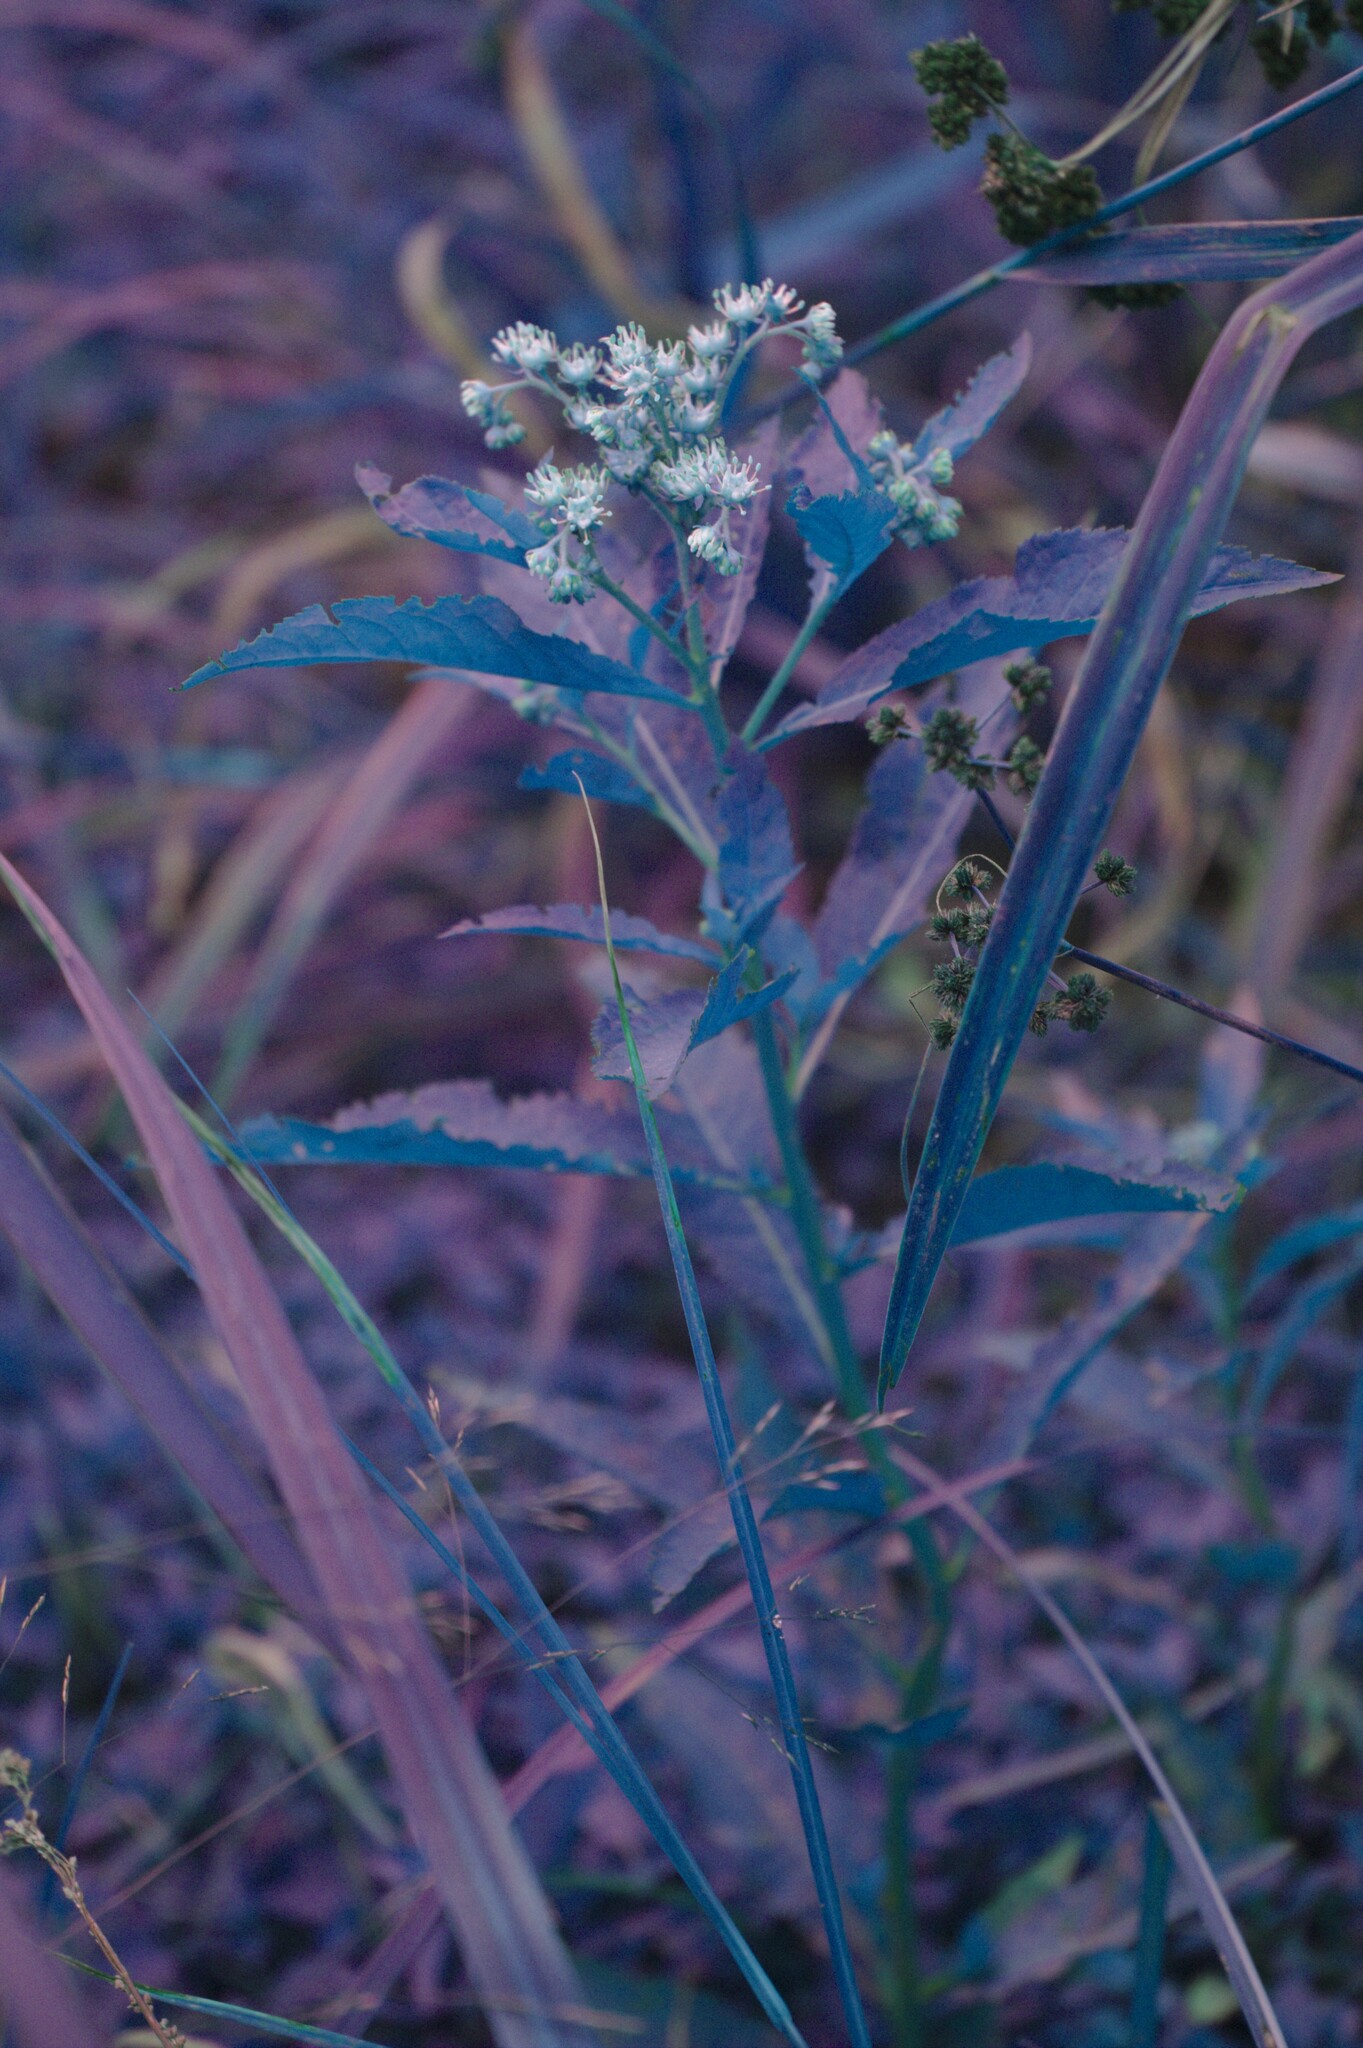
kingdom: Plantae
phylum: Tracheophyta
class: Magnoliopsida
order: Saxifragales
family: Penthoraceae
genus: Penthorum
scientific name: Penthorum sedoides
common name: Ditch stonecrop
